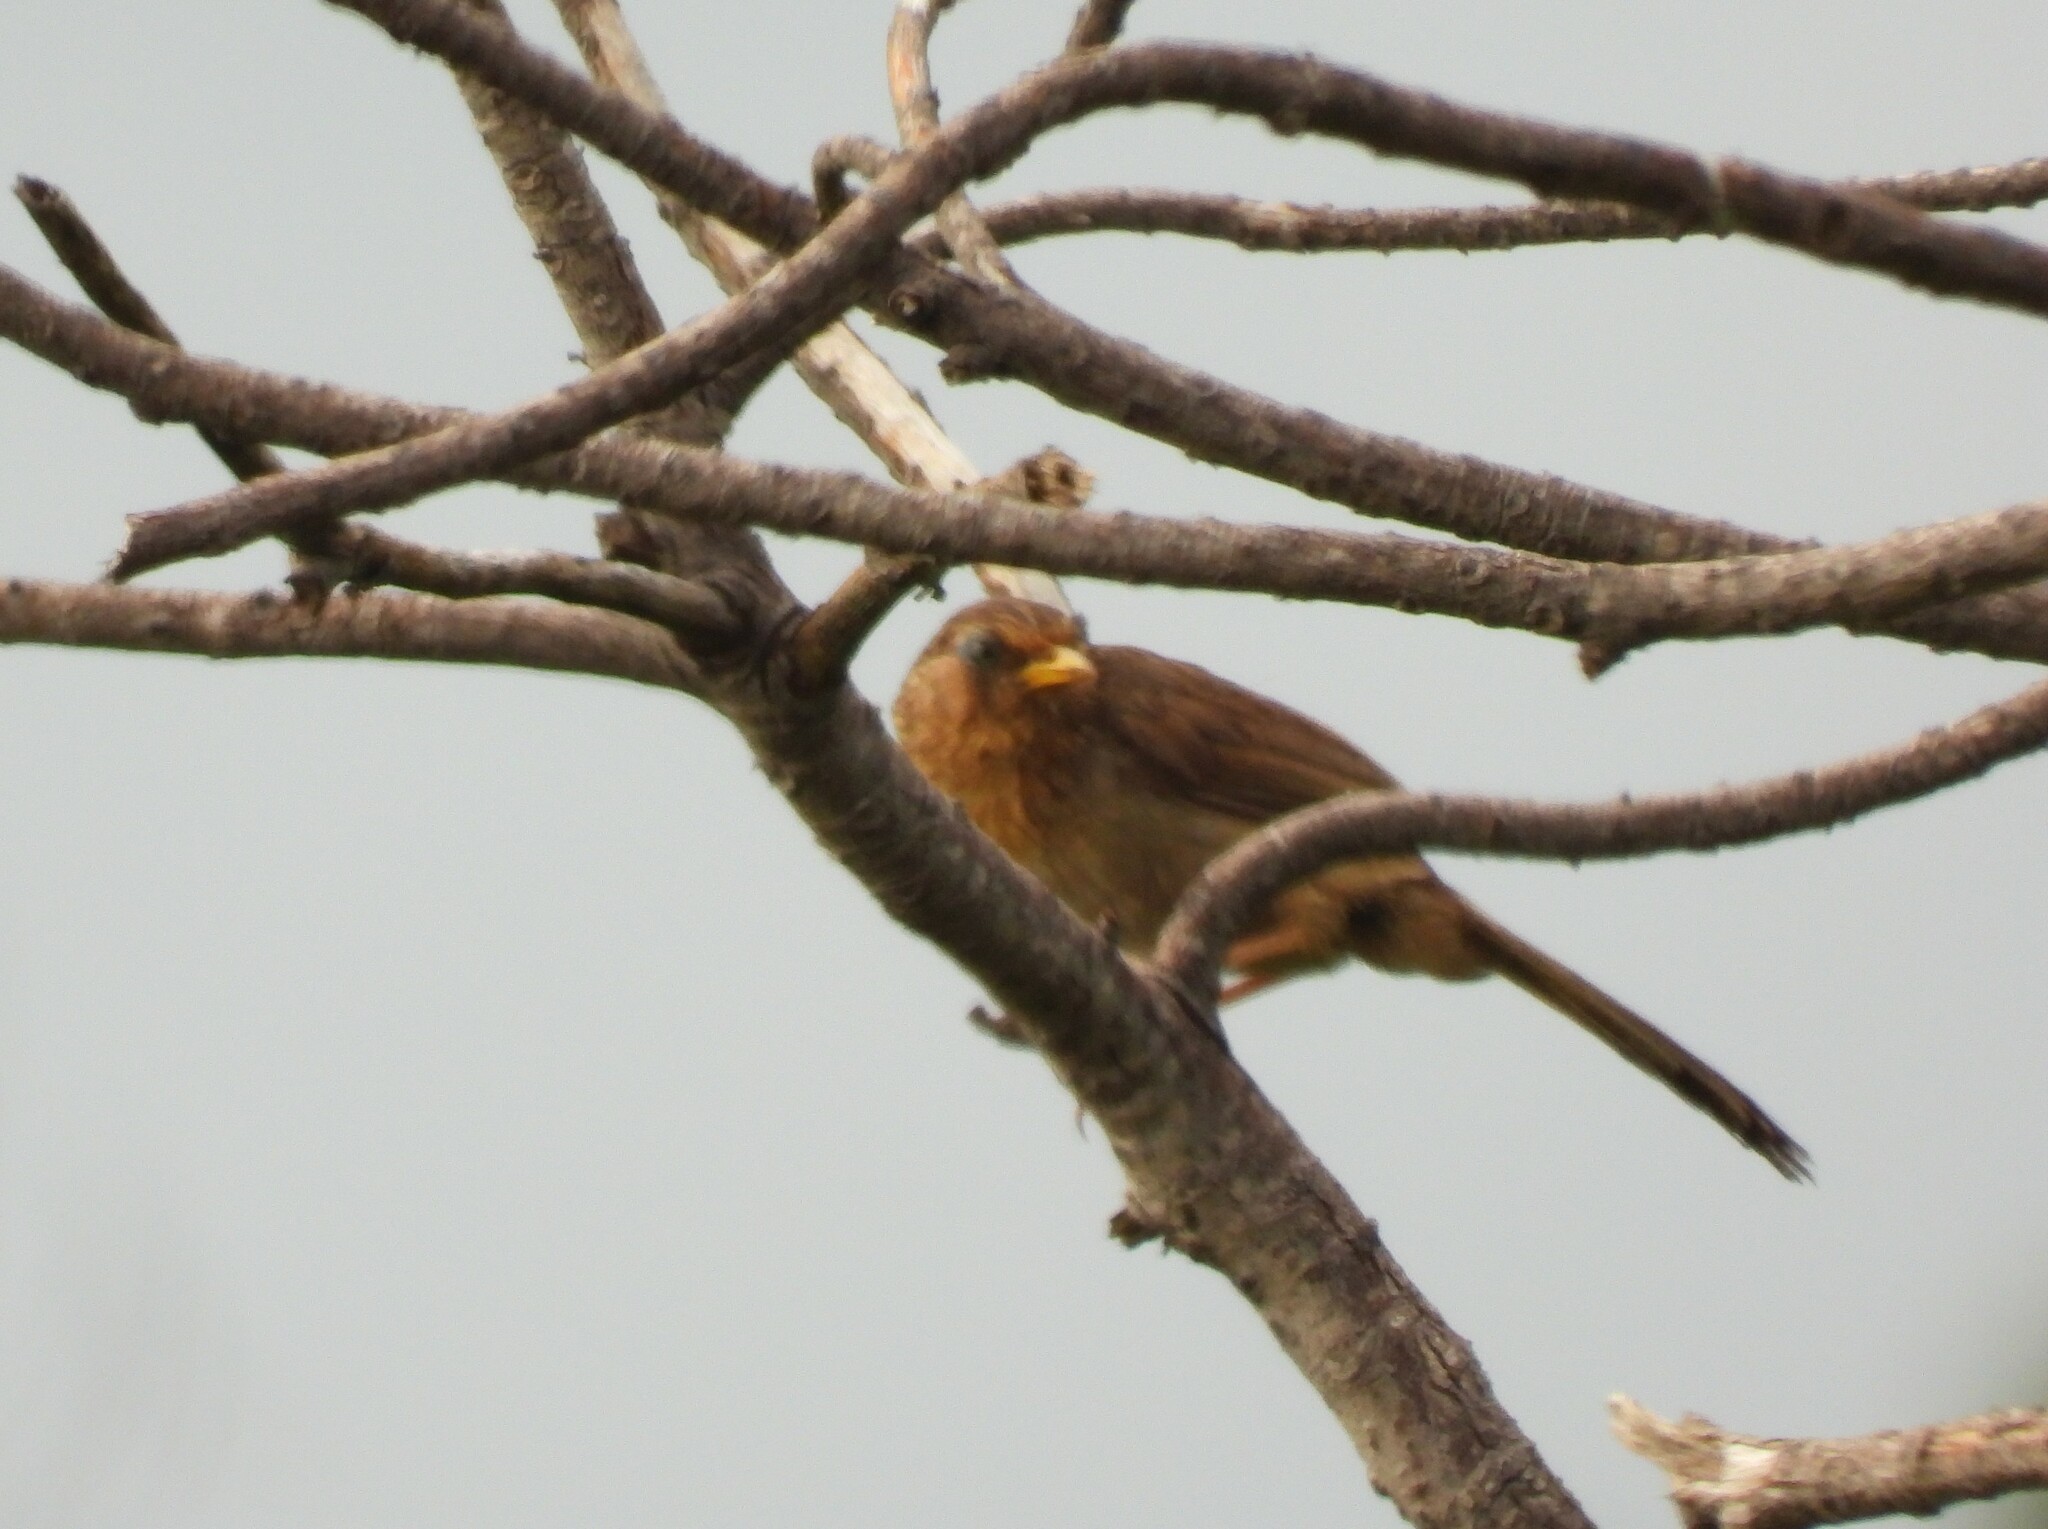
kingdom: Animalia
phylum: Chordata
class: Aves
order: Passeriformes
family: Leiothrichidae
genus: Garrulax
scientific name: Garrulax taewanus
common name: Taiwan hwamei
